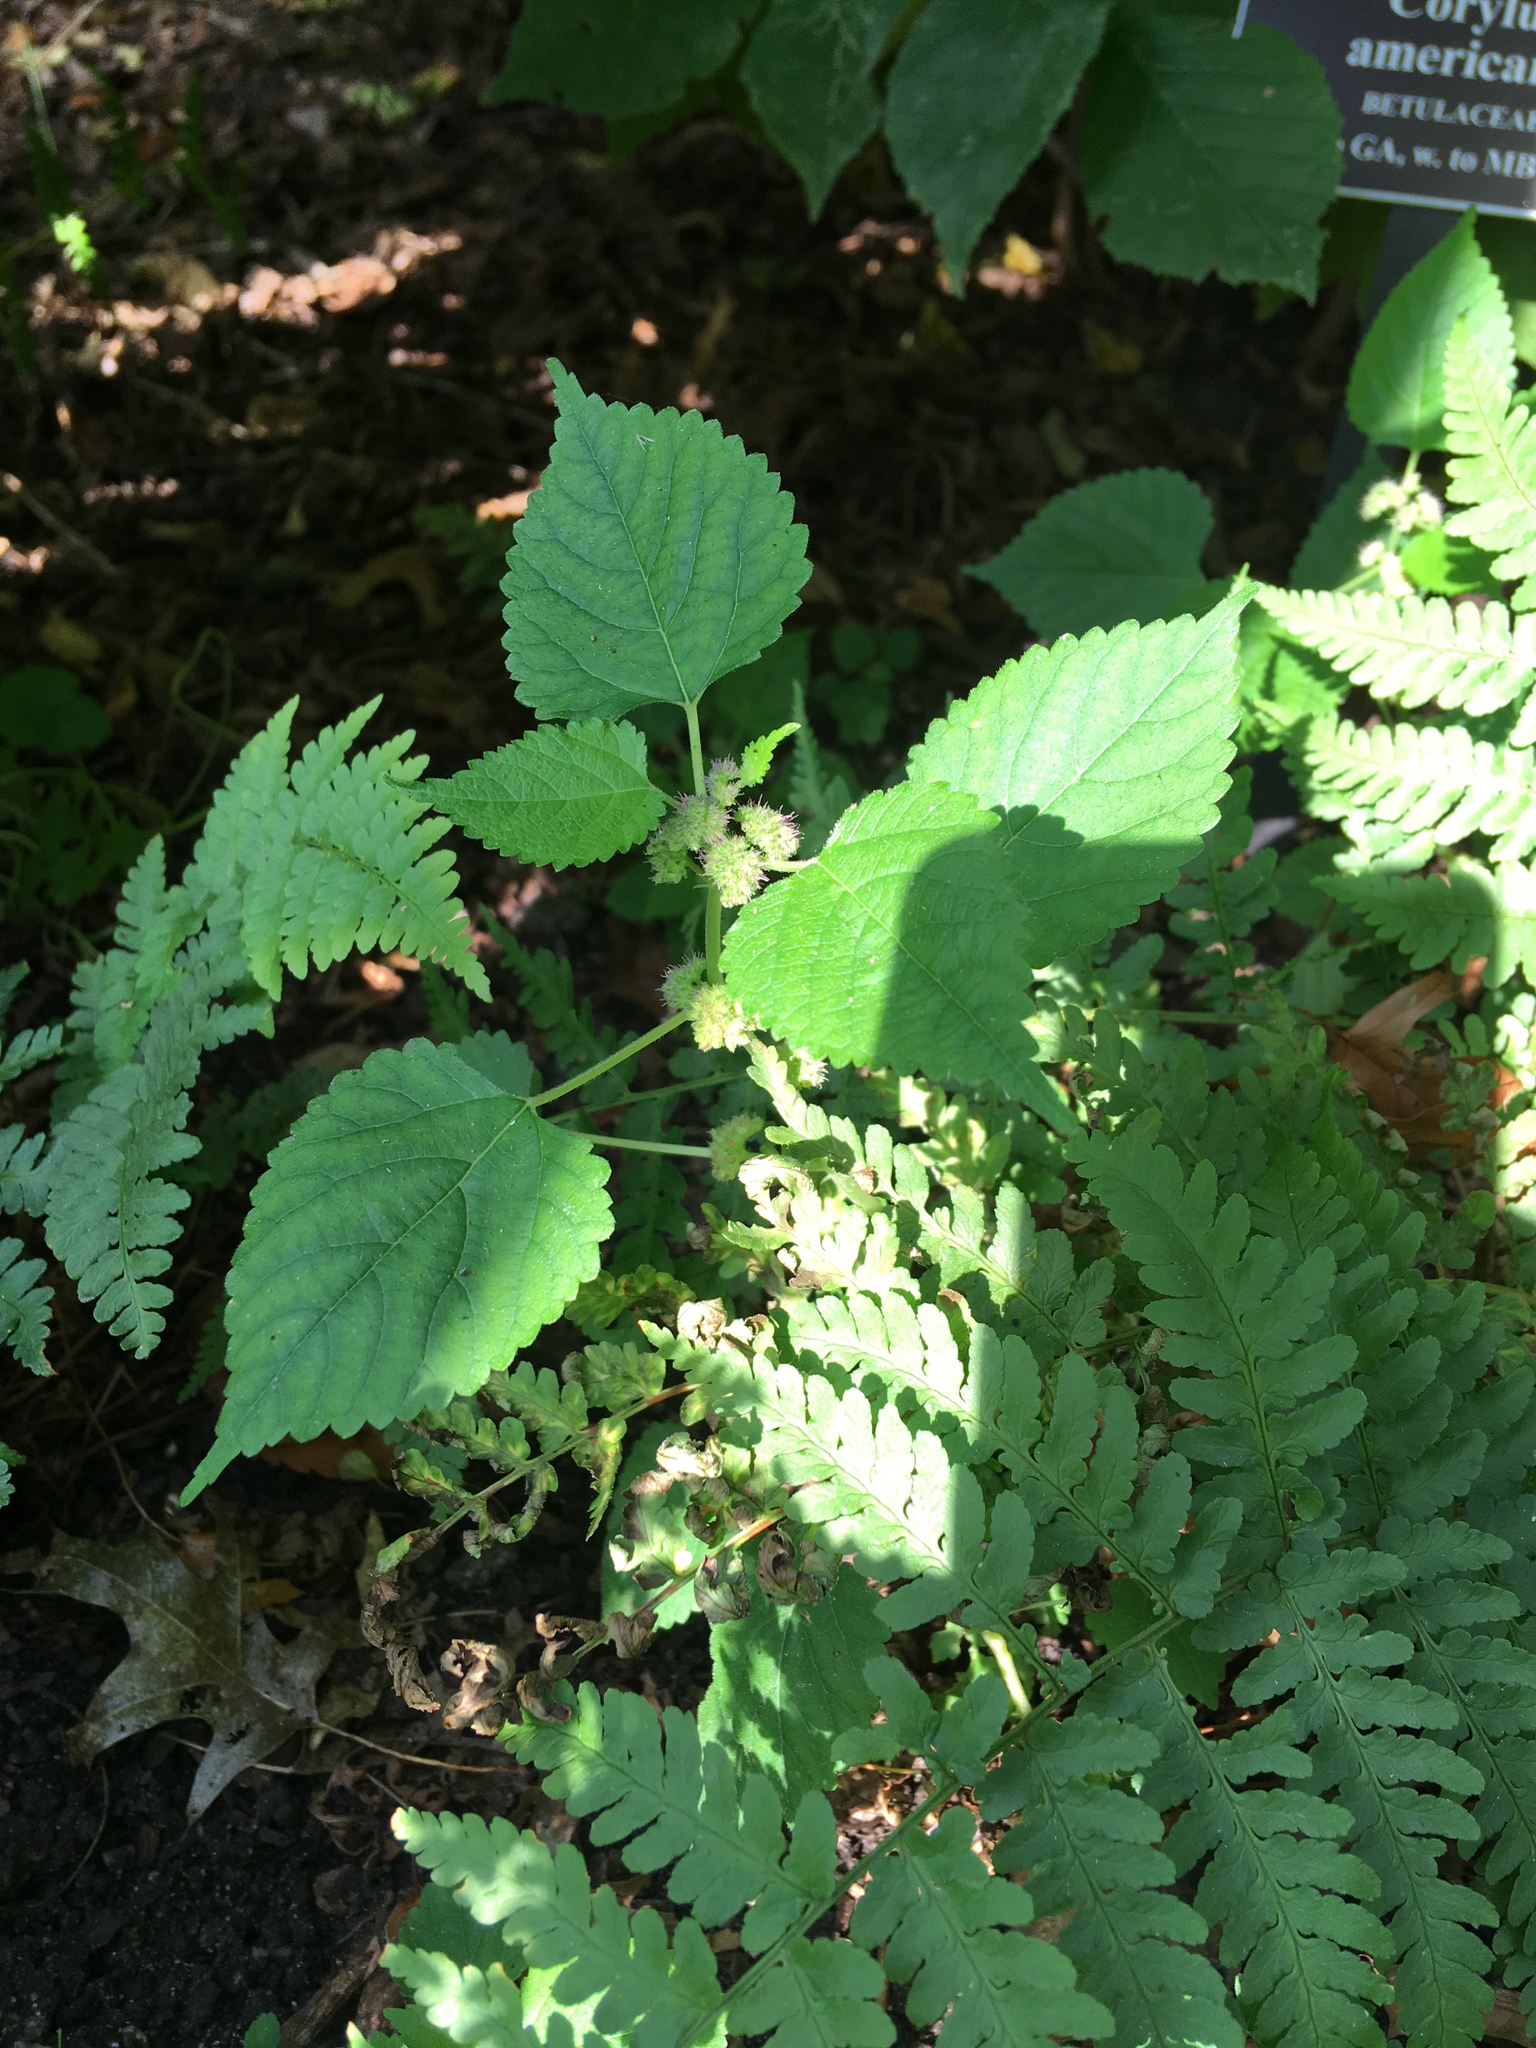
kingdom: Plantae
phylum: Tracheophyta
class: Magnoliopsida
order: Rosales
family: Moraceae
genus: Fatoua
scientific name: Fatoua villosa
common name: Hairy crabweed
